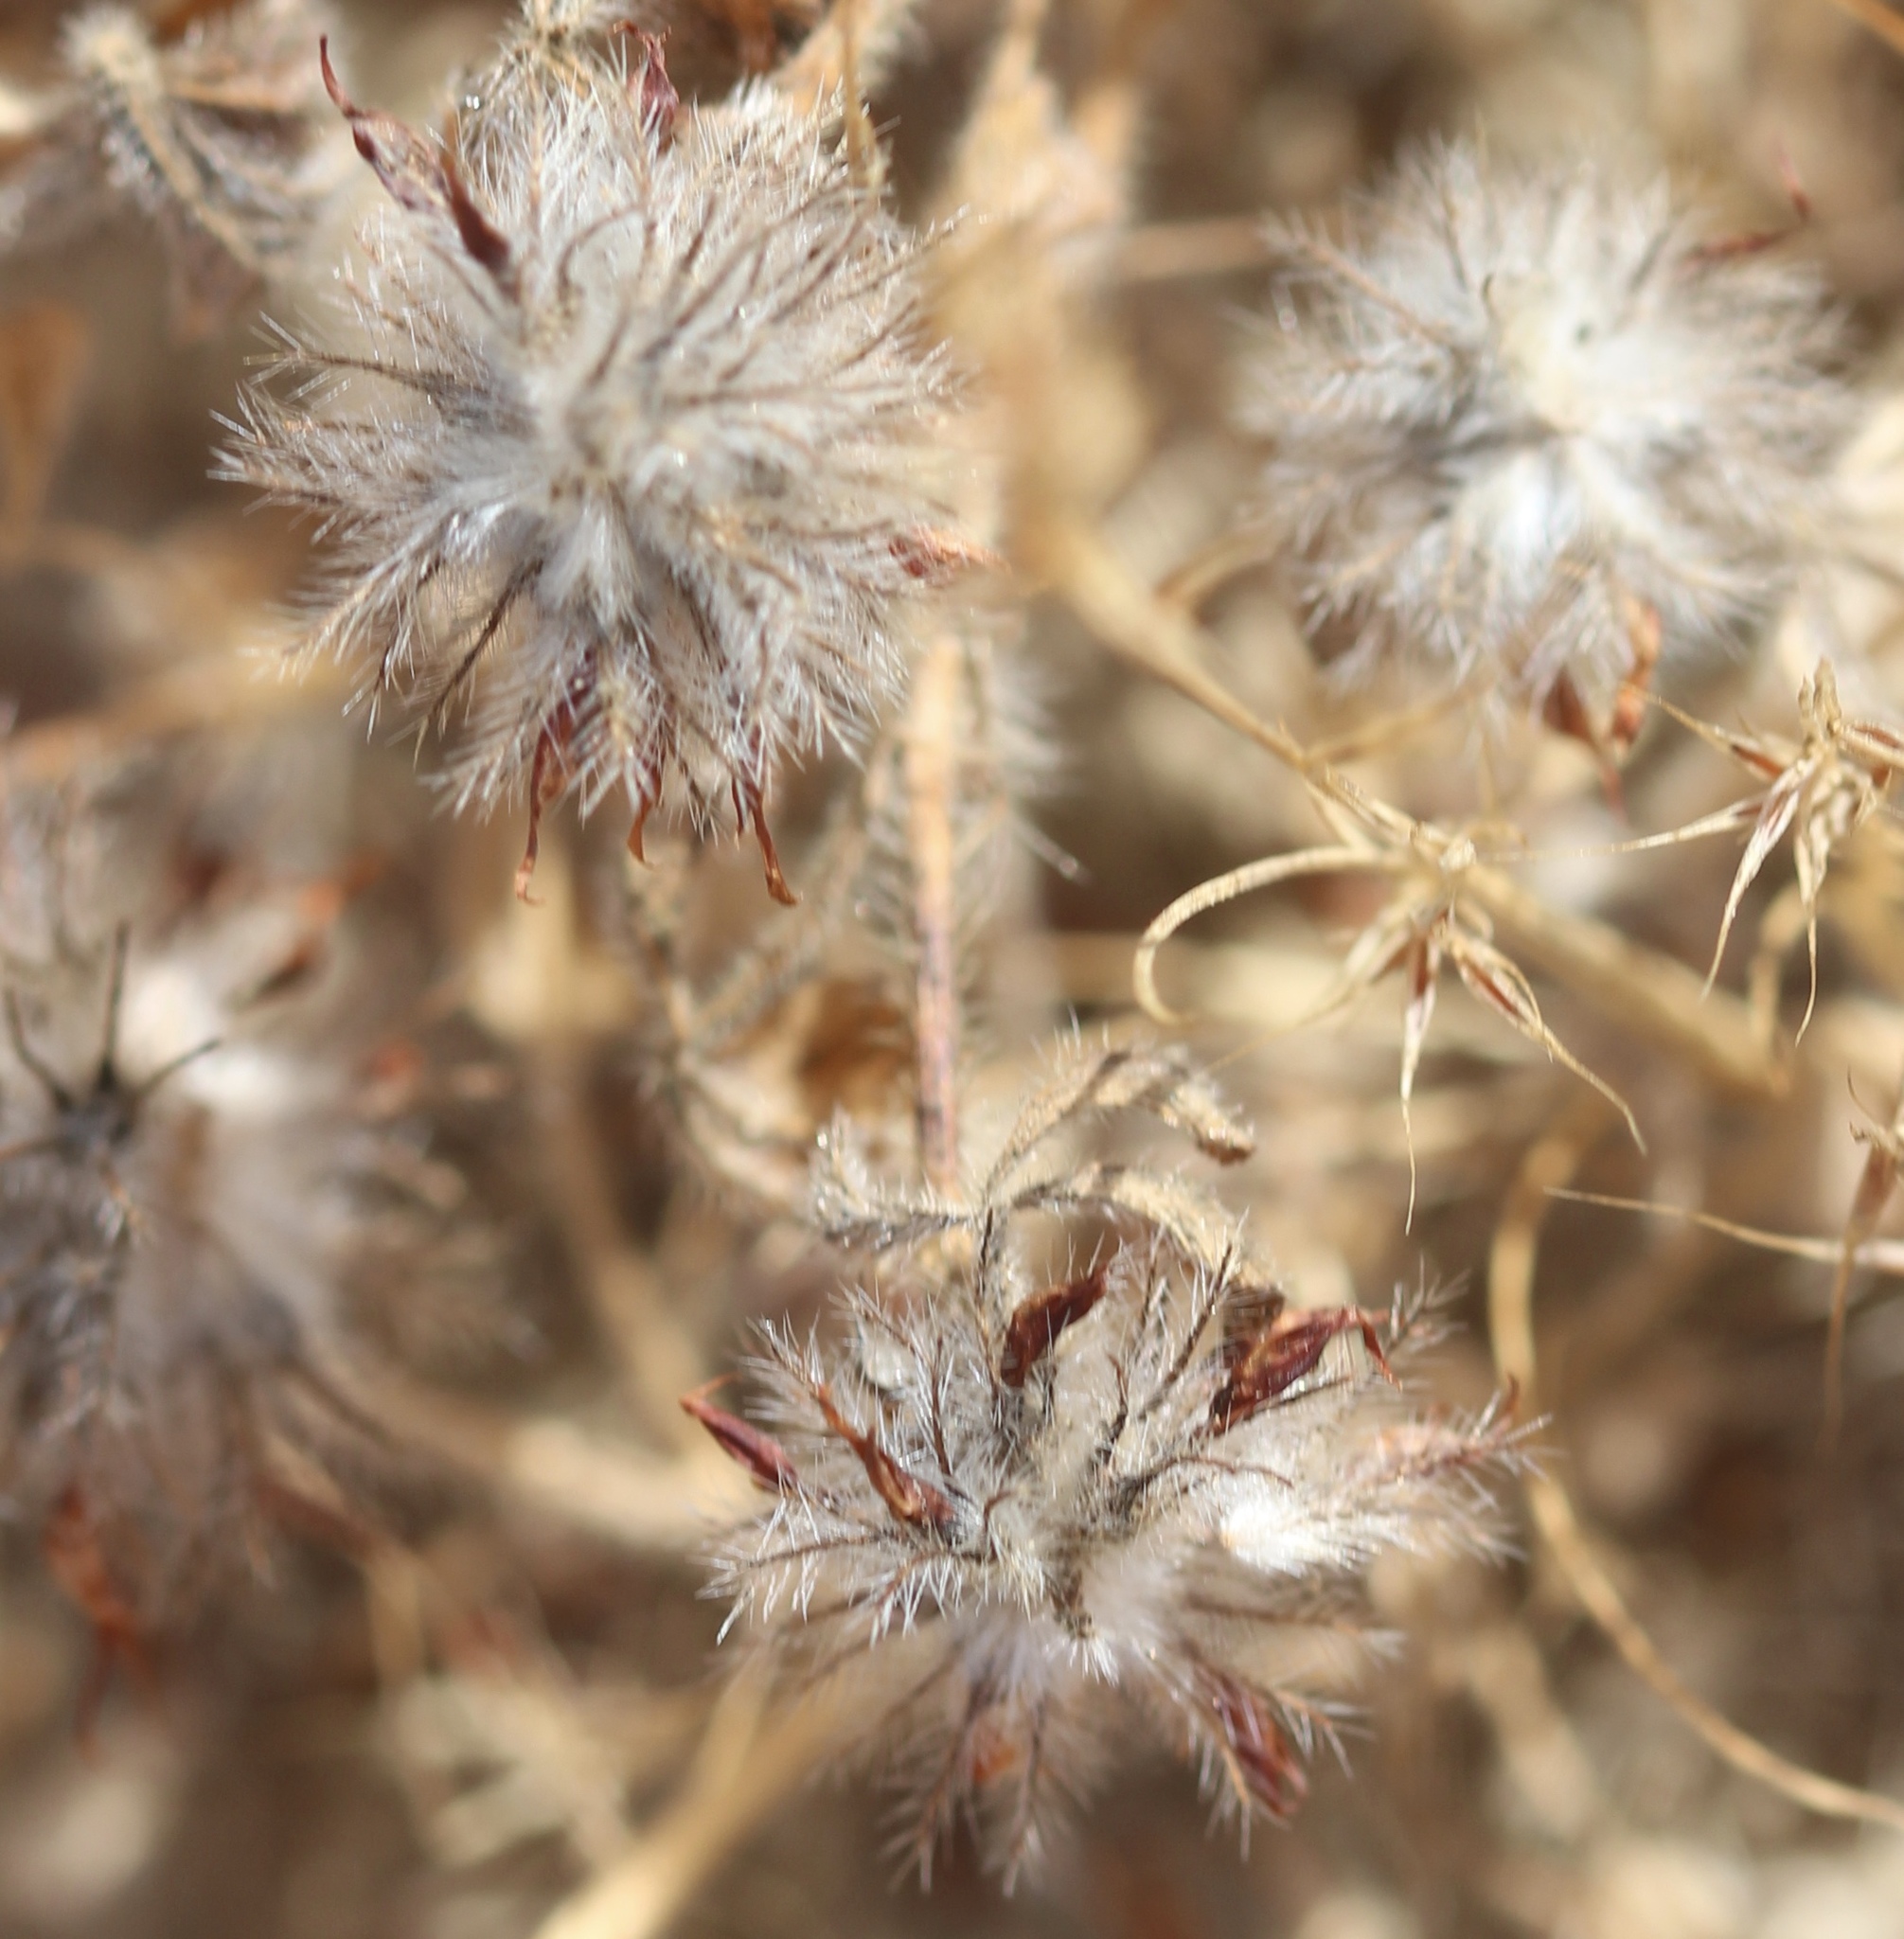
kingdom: Plantae
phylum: Tracheophyta
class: Magnoliopsida
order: Fabales
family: Fabaceae
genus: Trifolium
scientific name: Trifolium hirtum
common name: Rose clover
